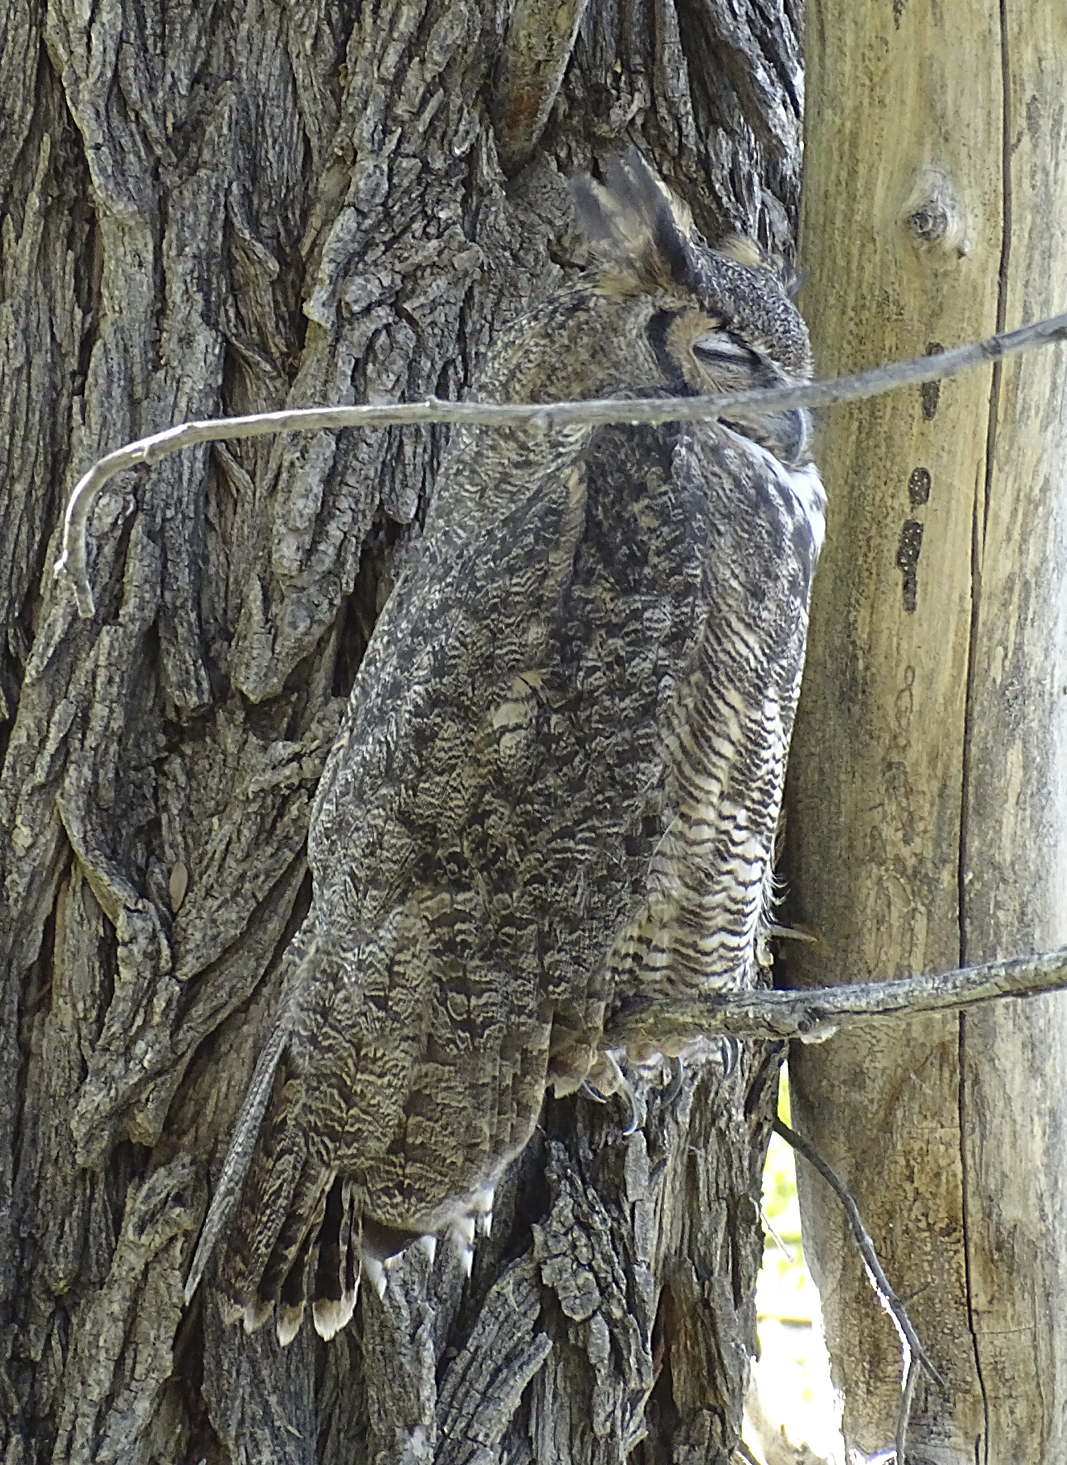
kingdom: Animalia
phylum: Chordata
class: Aves
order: Strigiformes
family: Strigidae
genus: Bubo
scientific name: Bubo virginianus
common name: Great horned owl
